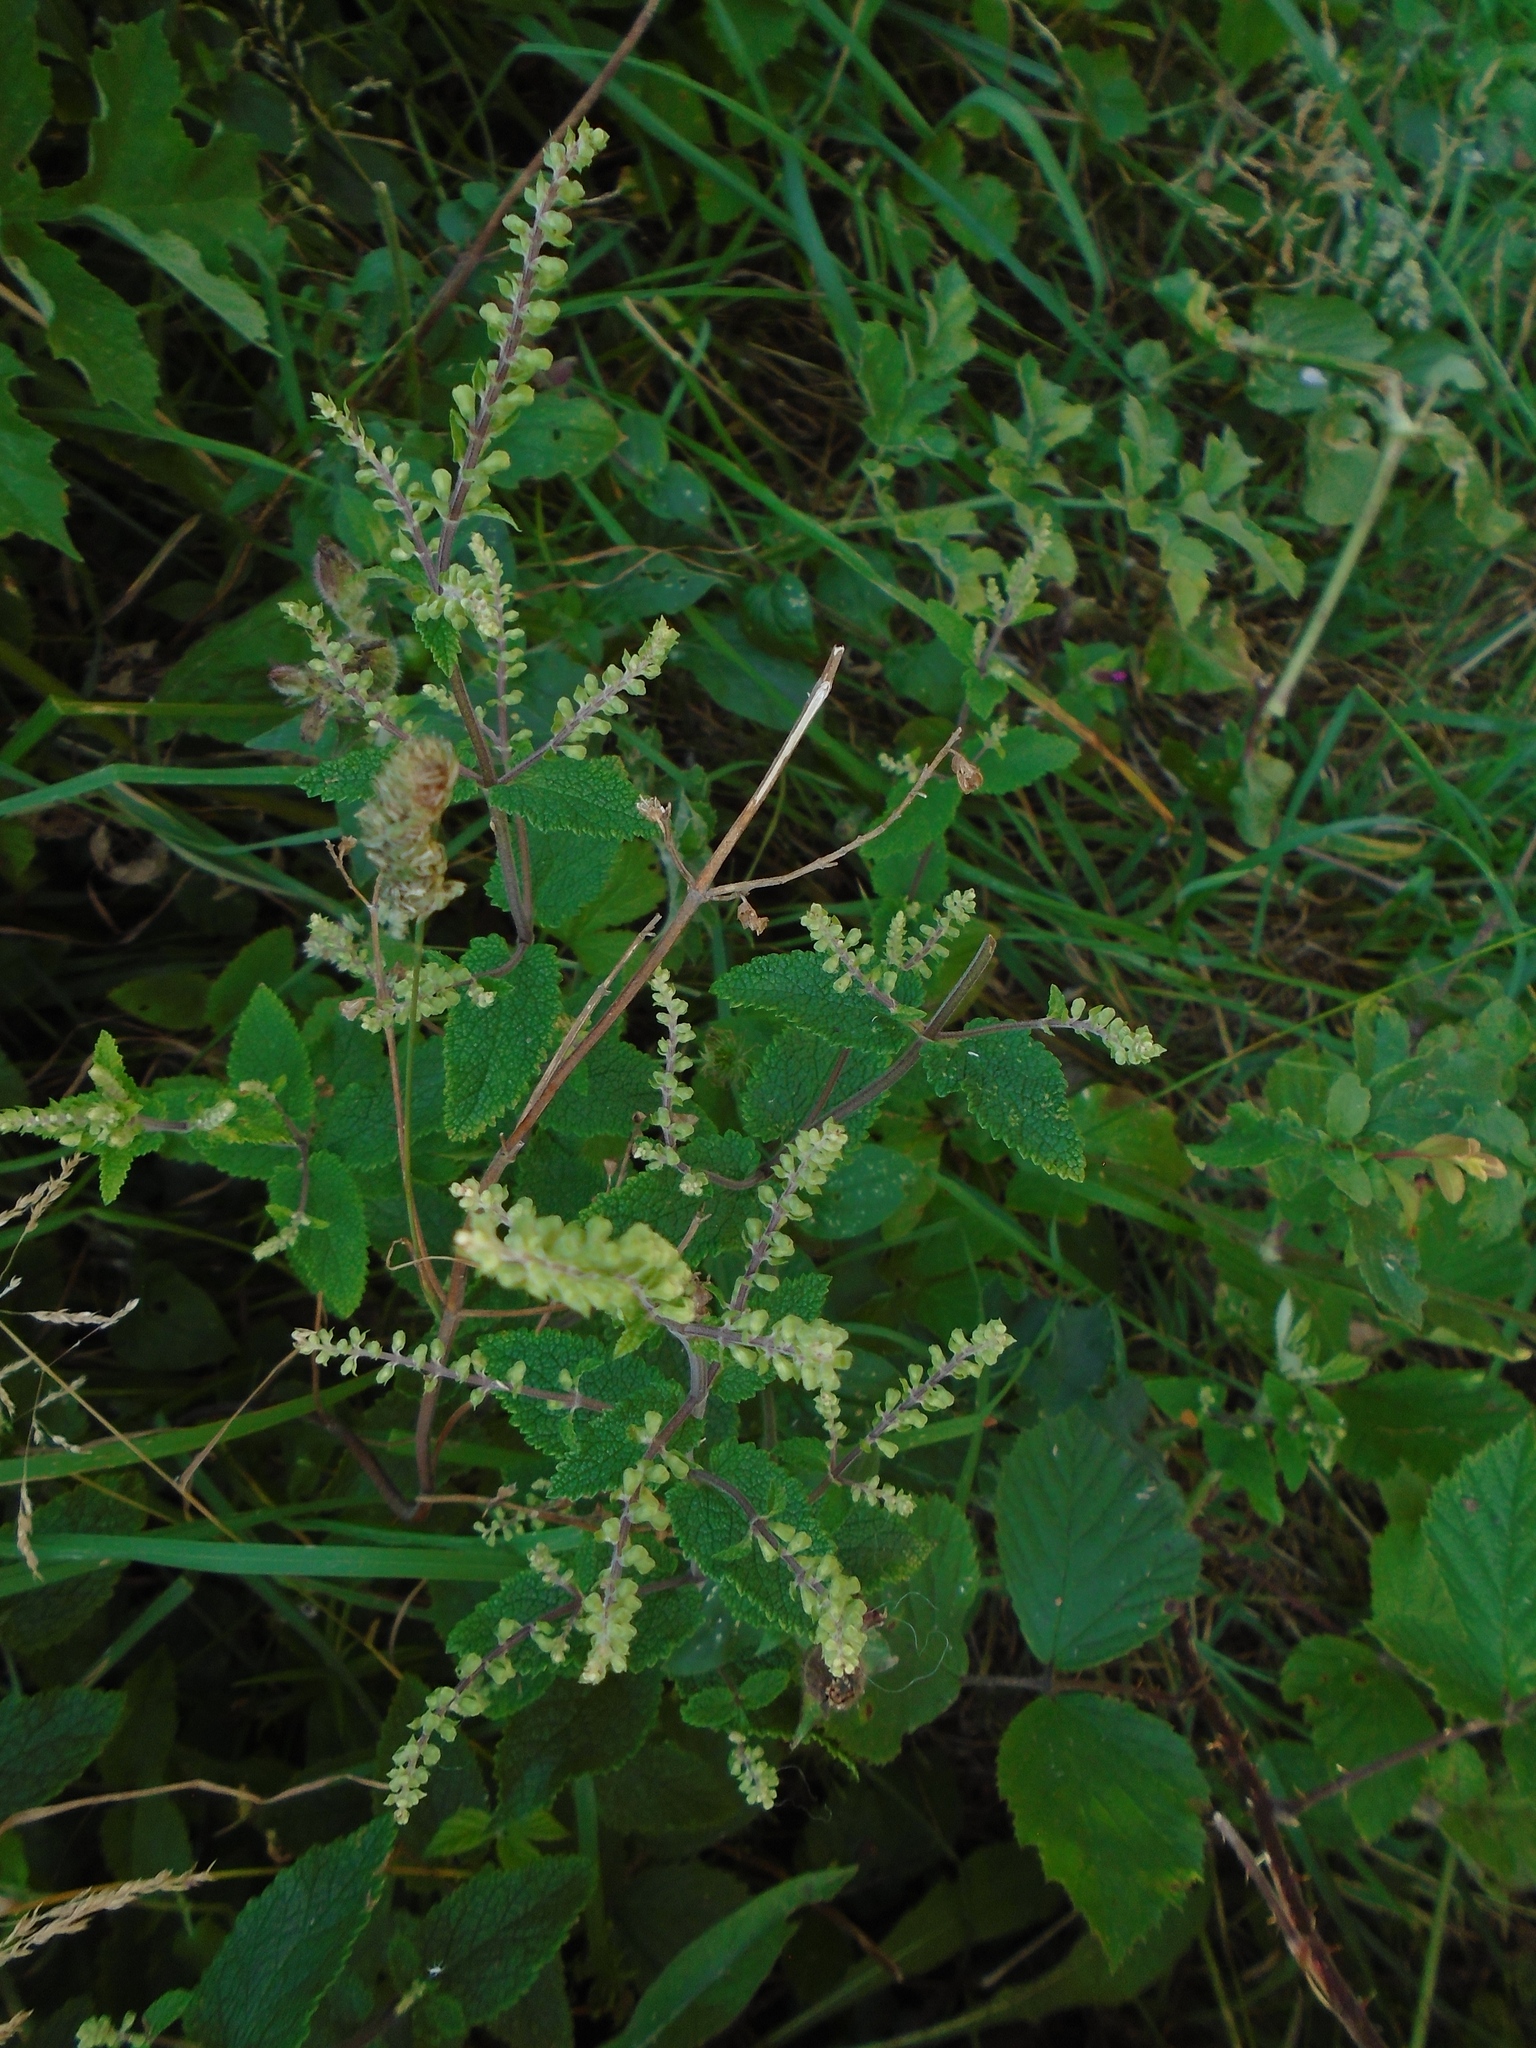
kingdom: Plantae
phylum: Tracheophyta
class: Magnoliopsida
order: Lamiales
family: Lamiaceae
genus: Teucrium
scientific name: Teucrium scorodonia
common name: Woodland germander
